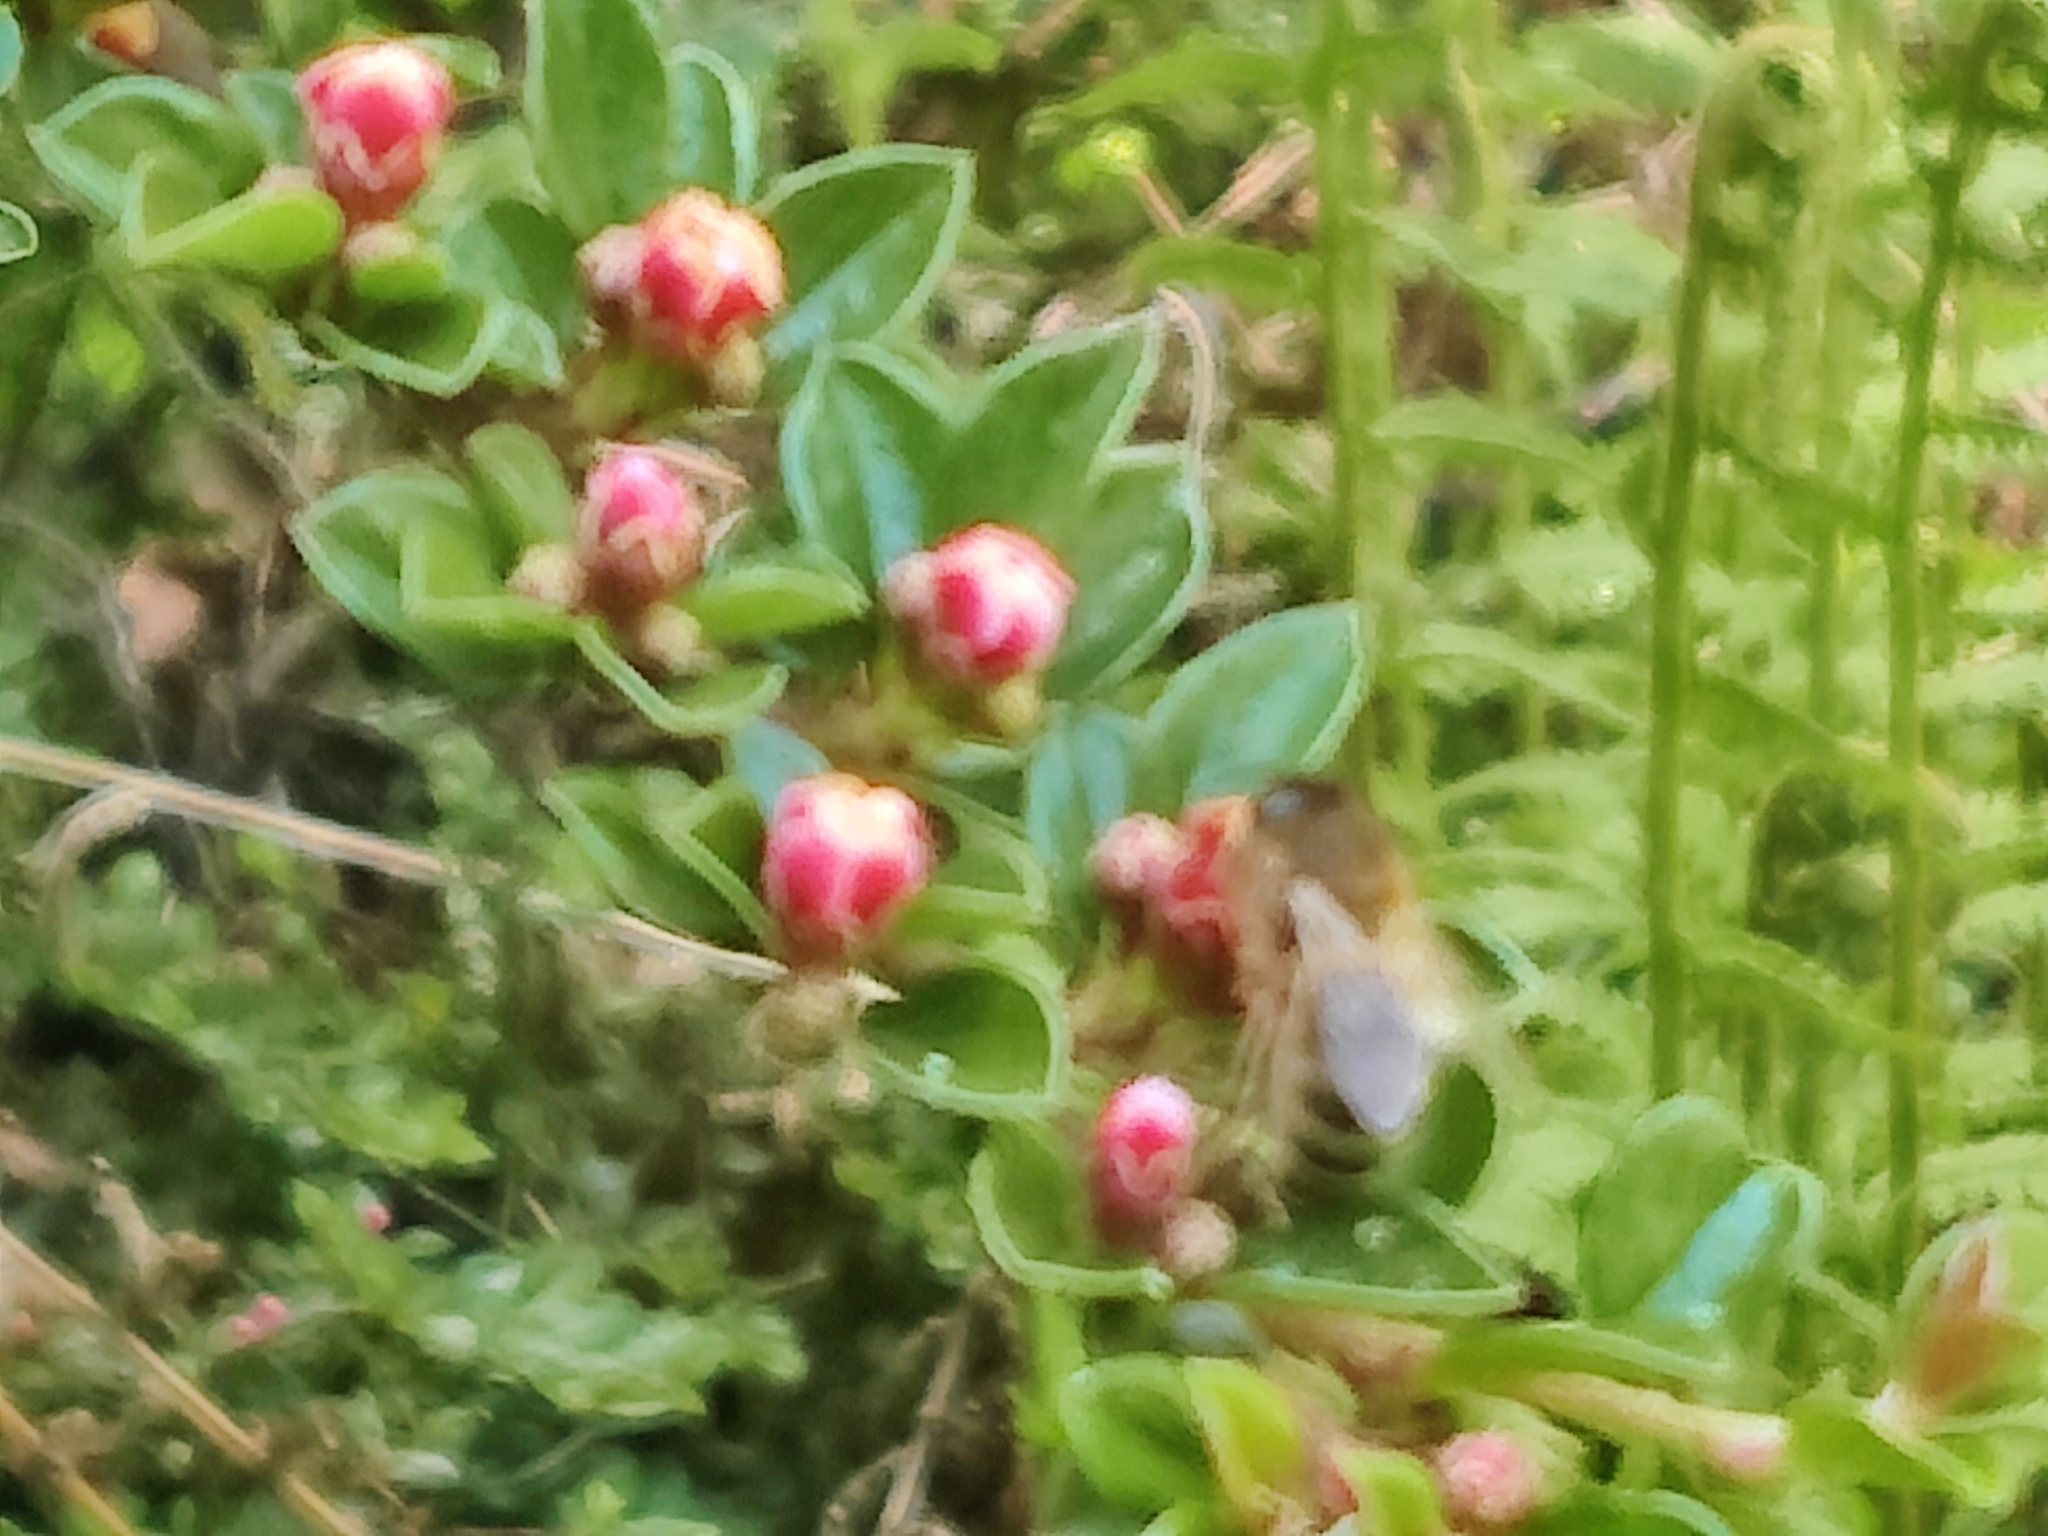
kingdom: Animalia
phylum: Arthropoda
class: Insecta
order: Hymenoptera
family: Apidae
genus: Apis
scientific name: Apis mellifera
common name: Honey bee
